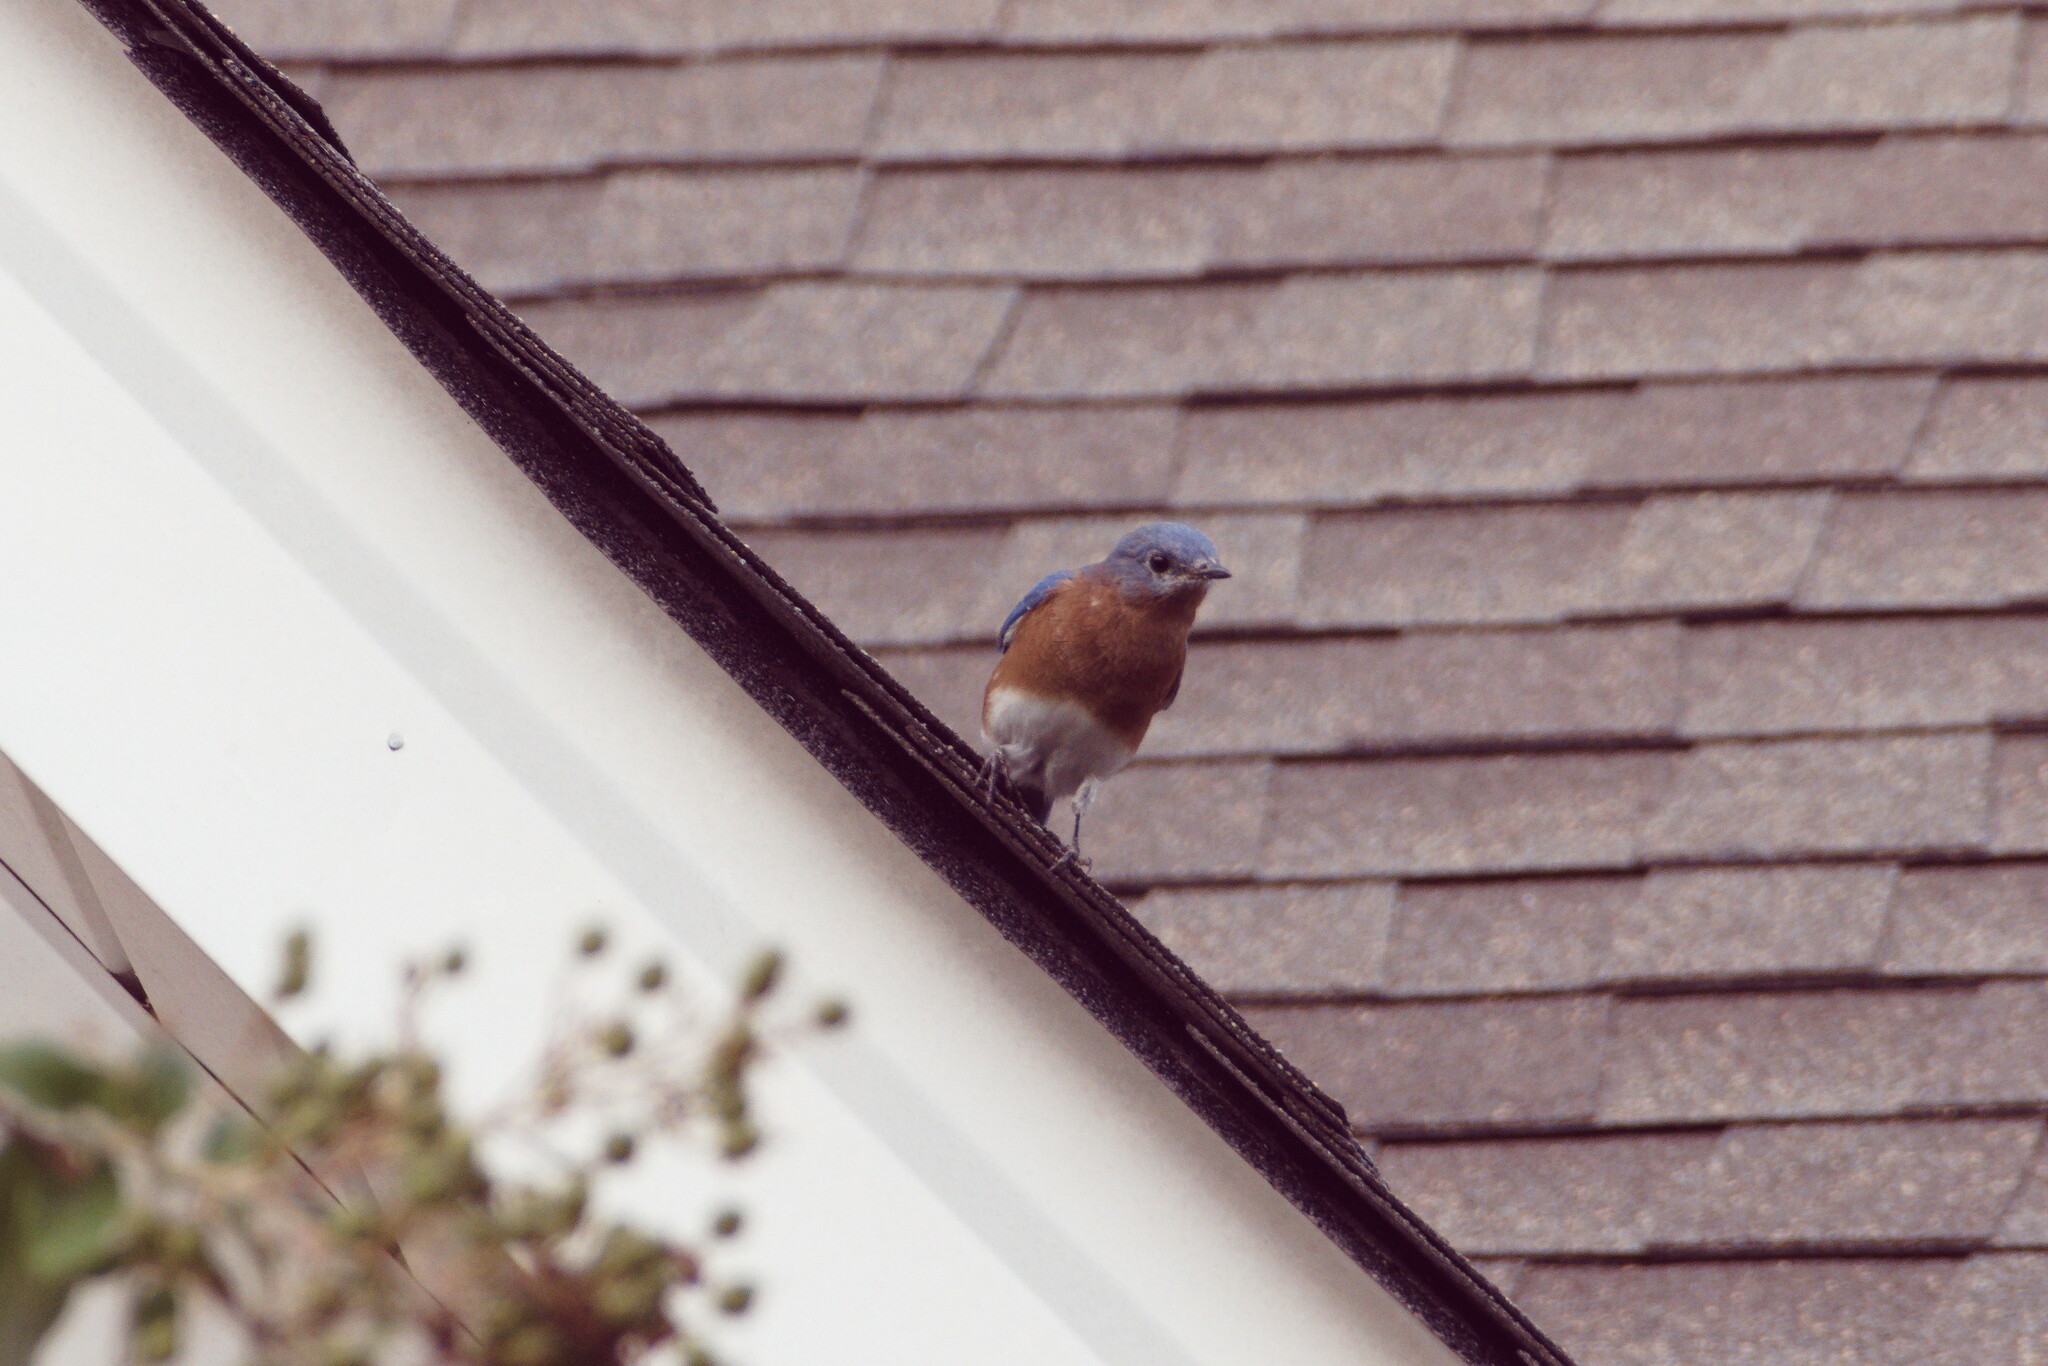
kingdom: Animalia
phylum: Chordata
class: Aves
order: Passeriformes
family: Turdidae
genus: Sialia
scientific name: Sialia sialis
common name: Eastern bluebird
